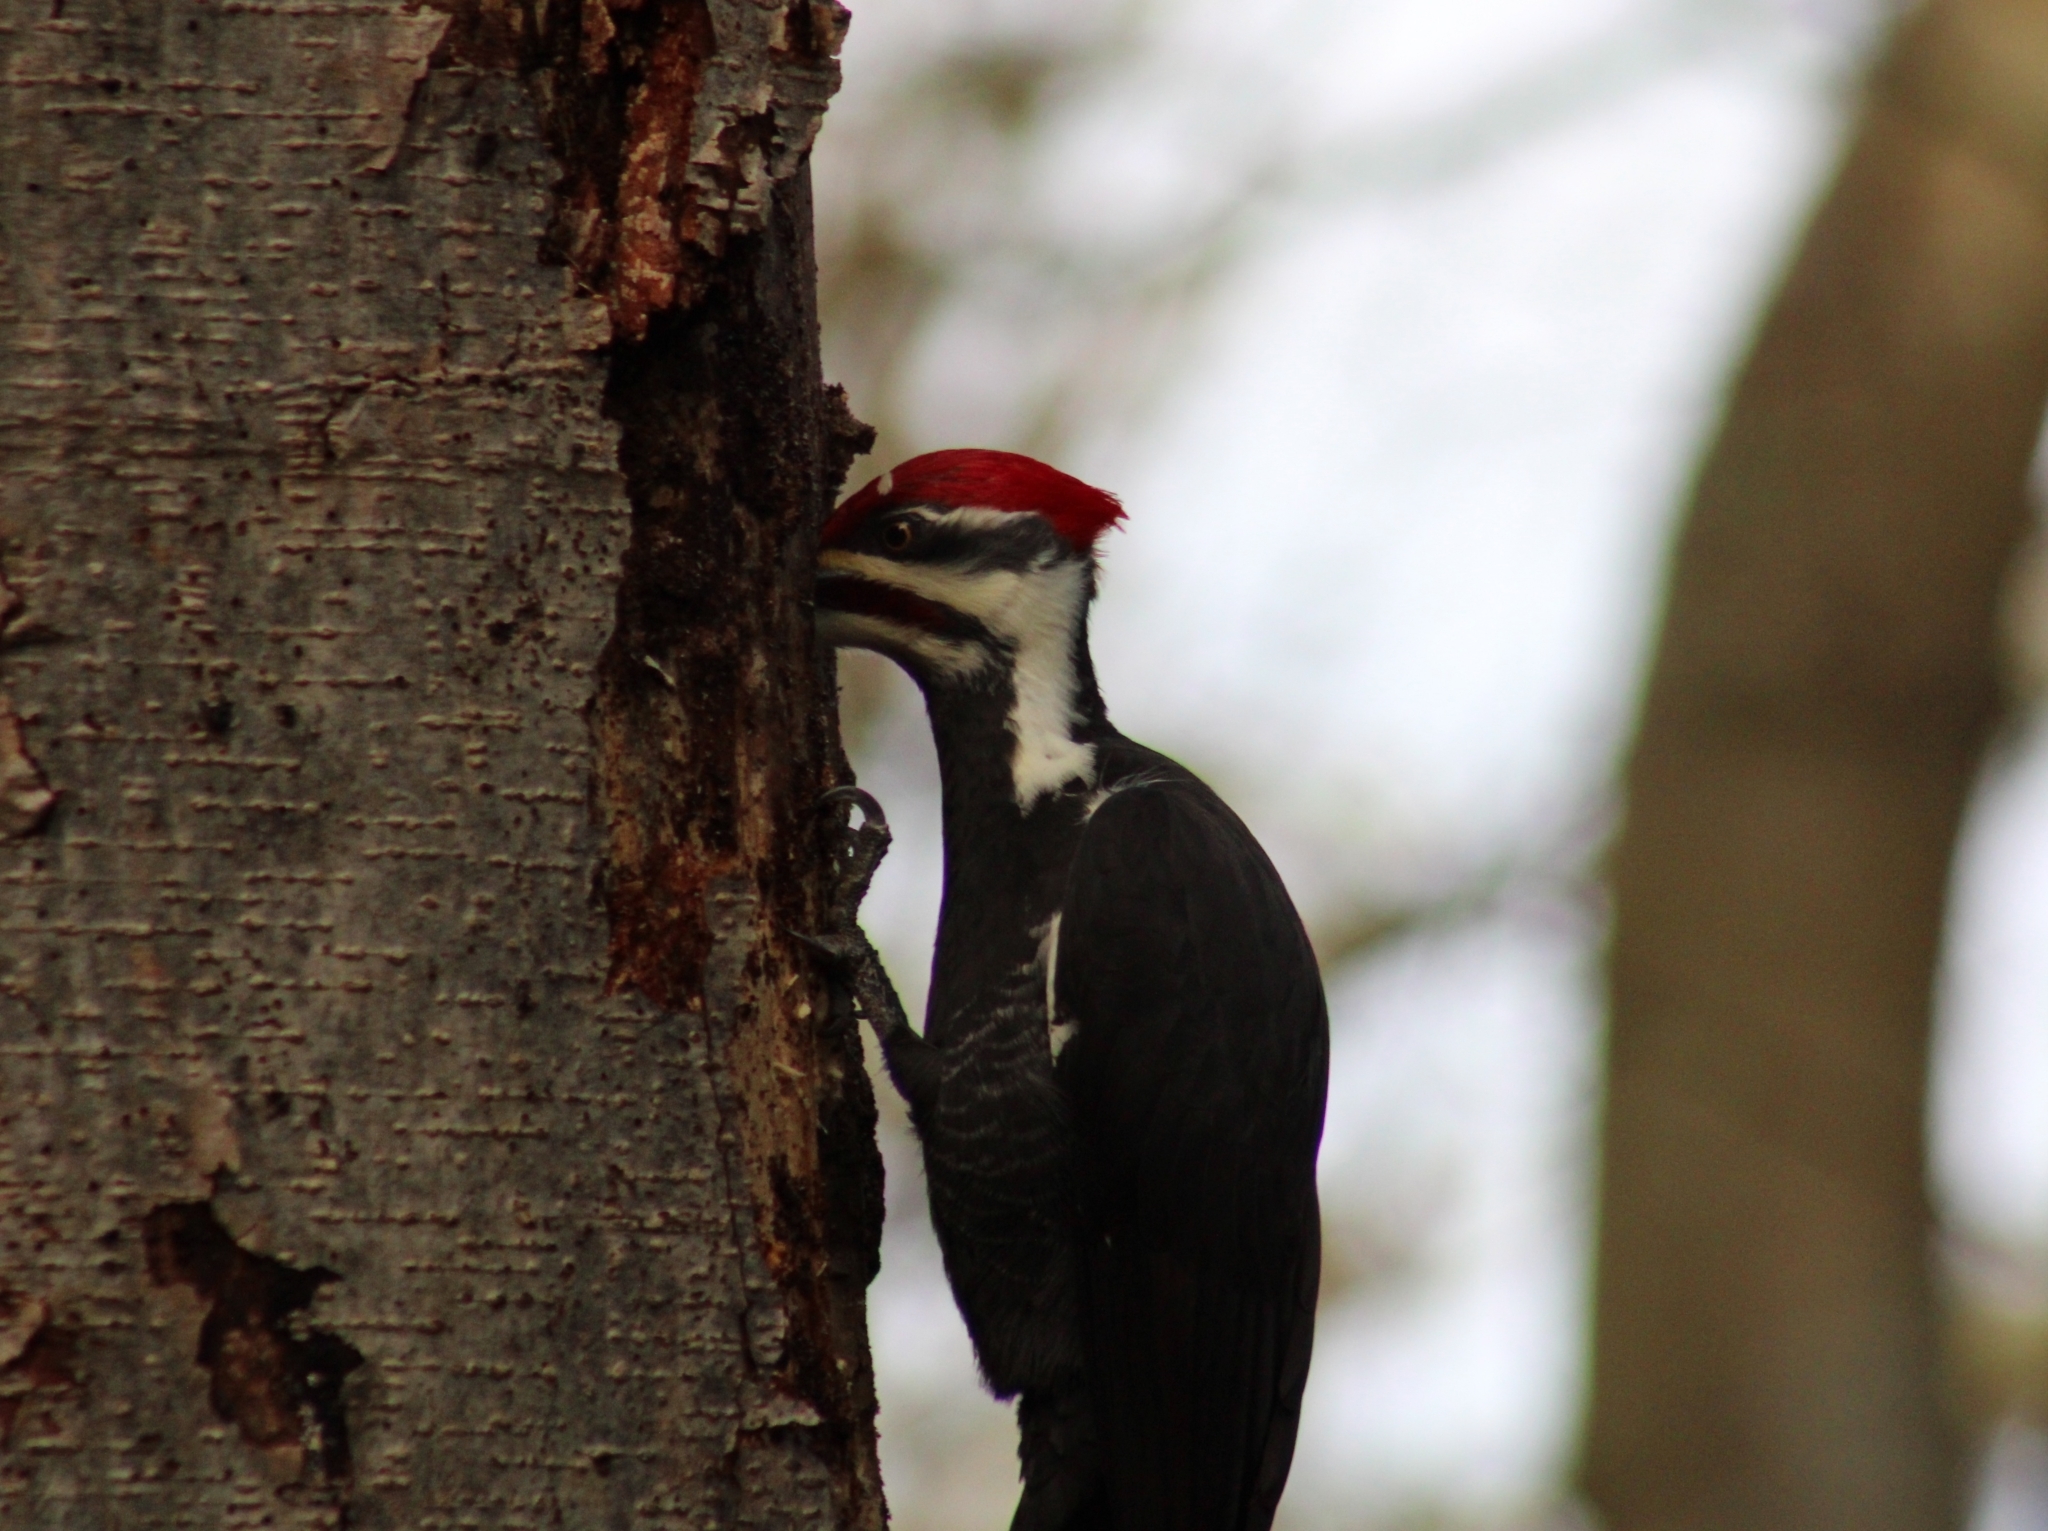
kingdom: Animalia
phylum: Chordata
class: Aves
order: Piciformes
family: Picidae
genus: Dryocopus
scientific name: Dryocopus pileatus
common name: Pileated woodpecker
